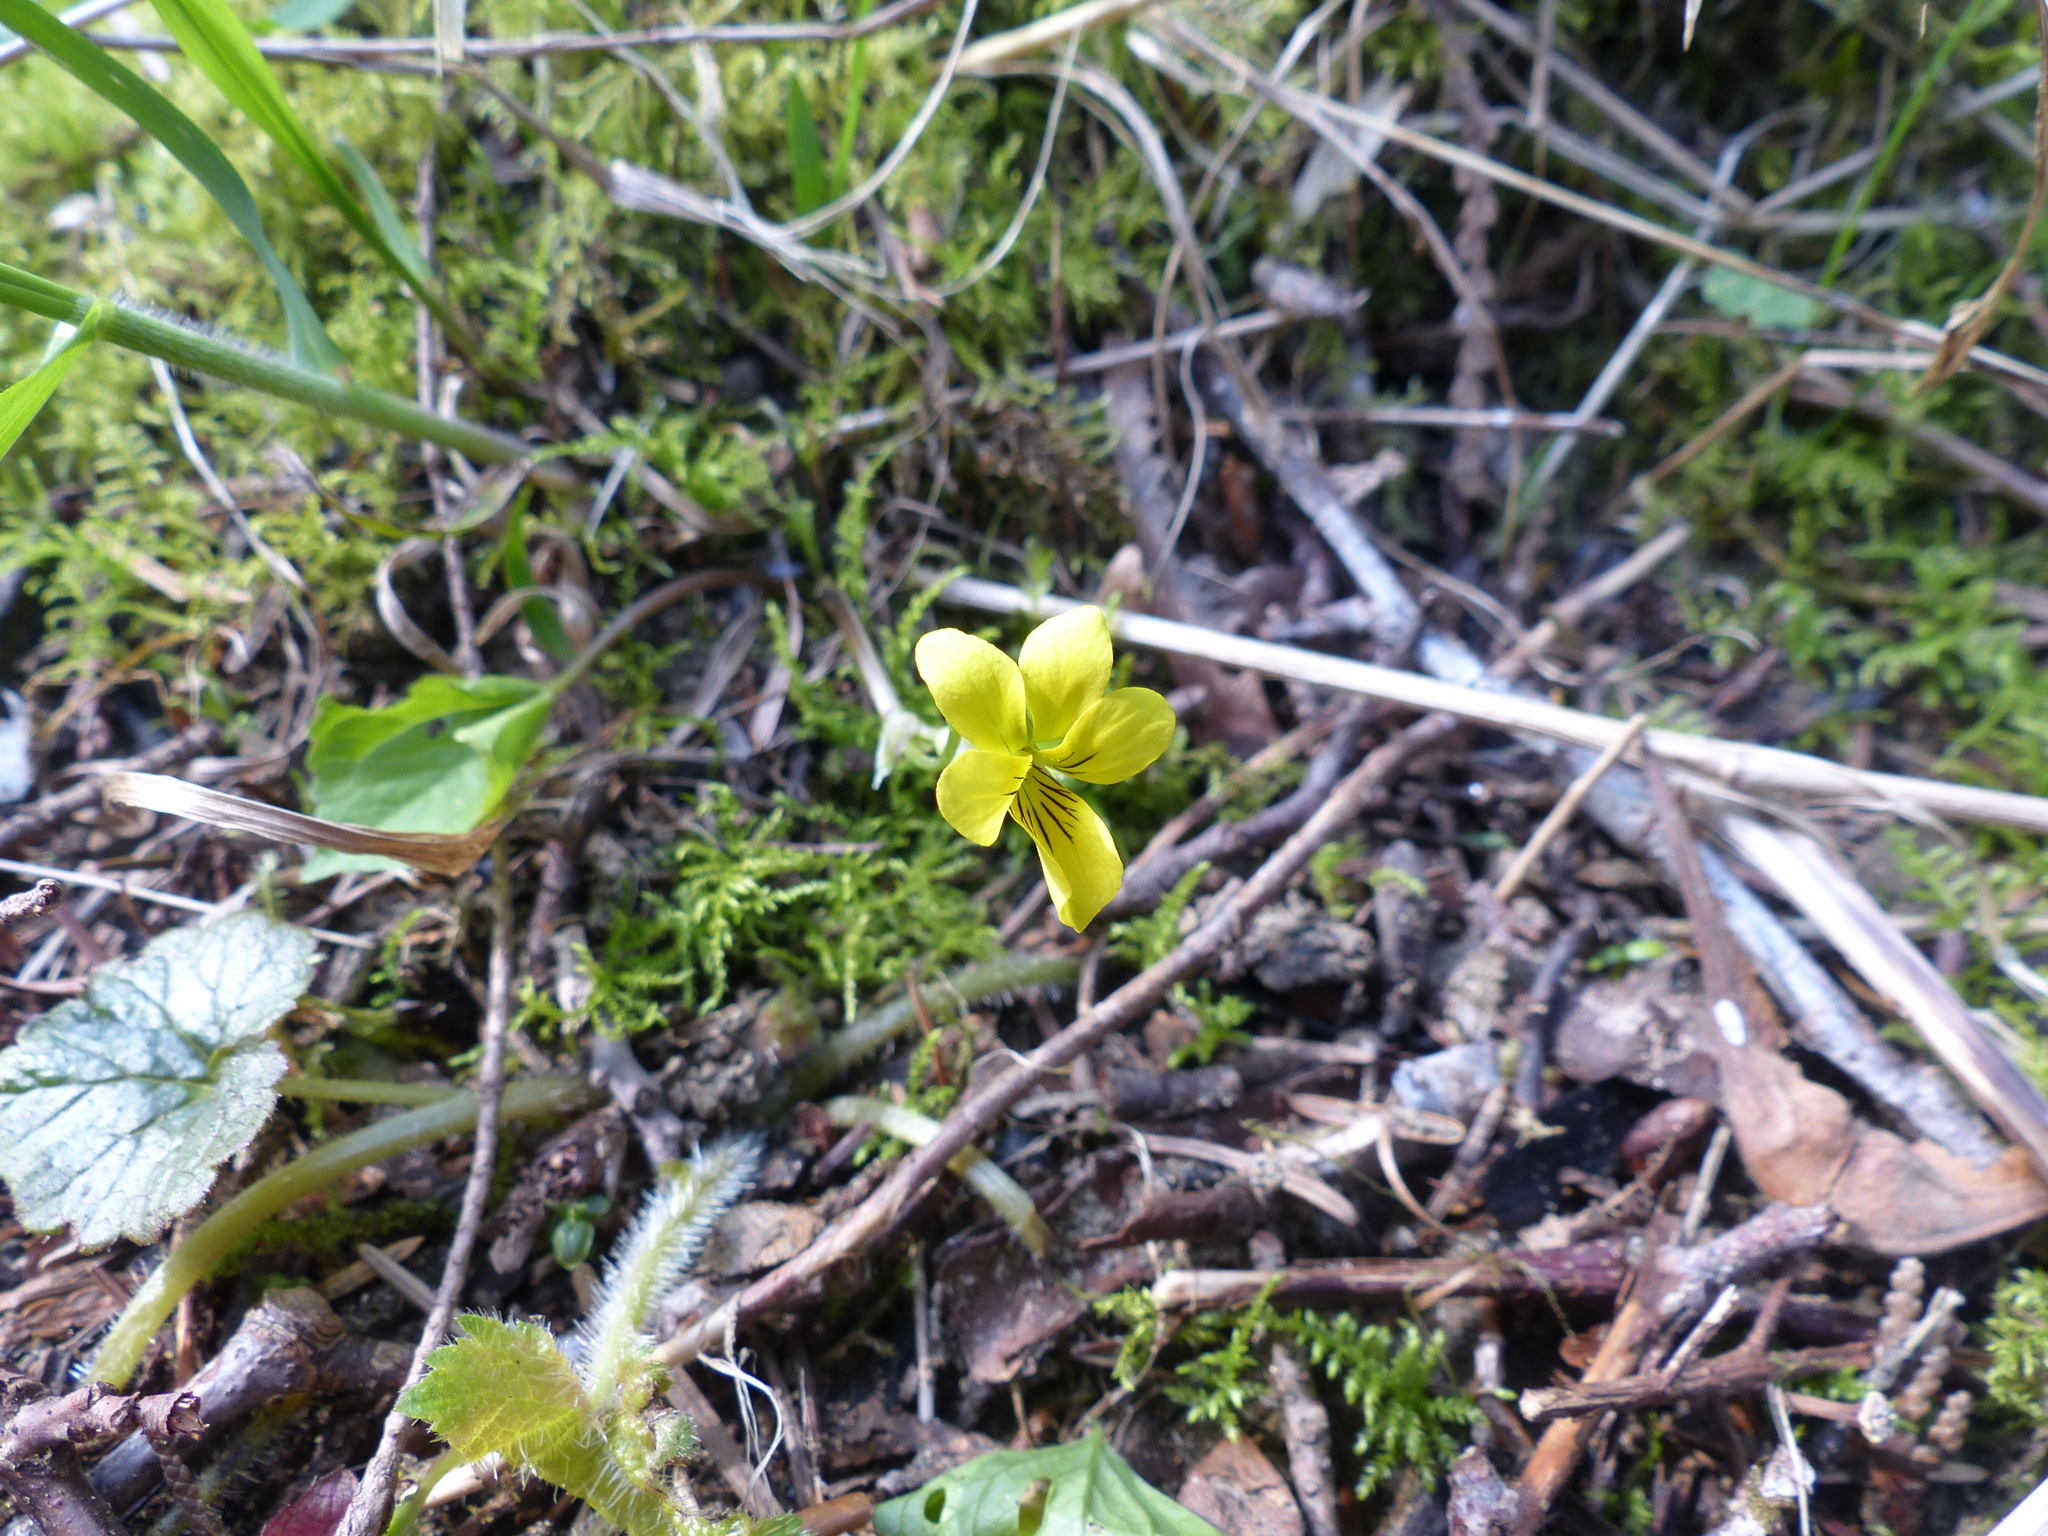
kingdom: Plantae
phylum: Tracheophyta
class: Magnoliopsida
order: Malpighiales
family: Violaceae
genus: Viola
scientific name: Viola glabella
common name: Stream violet
